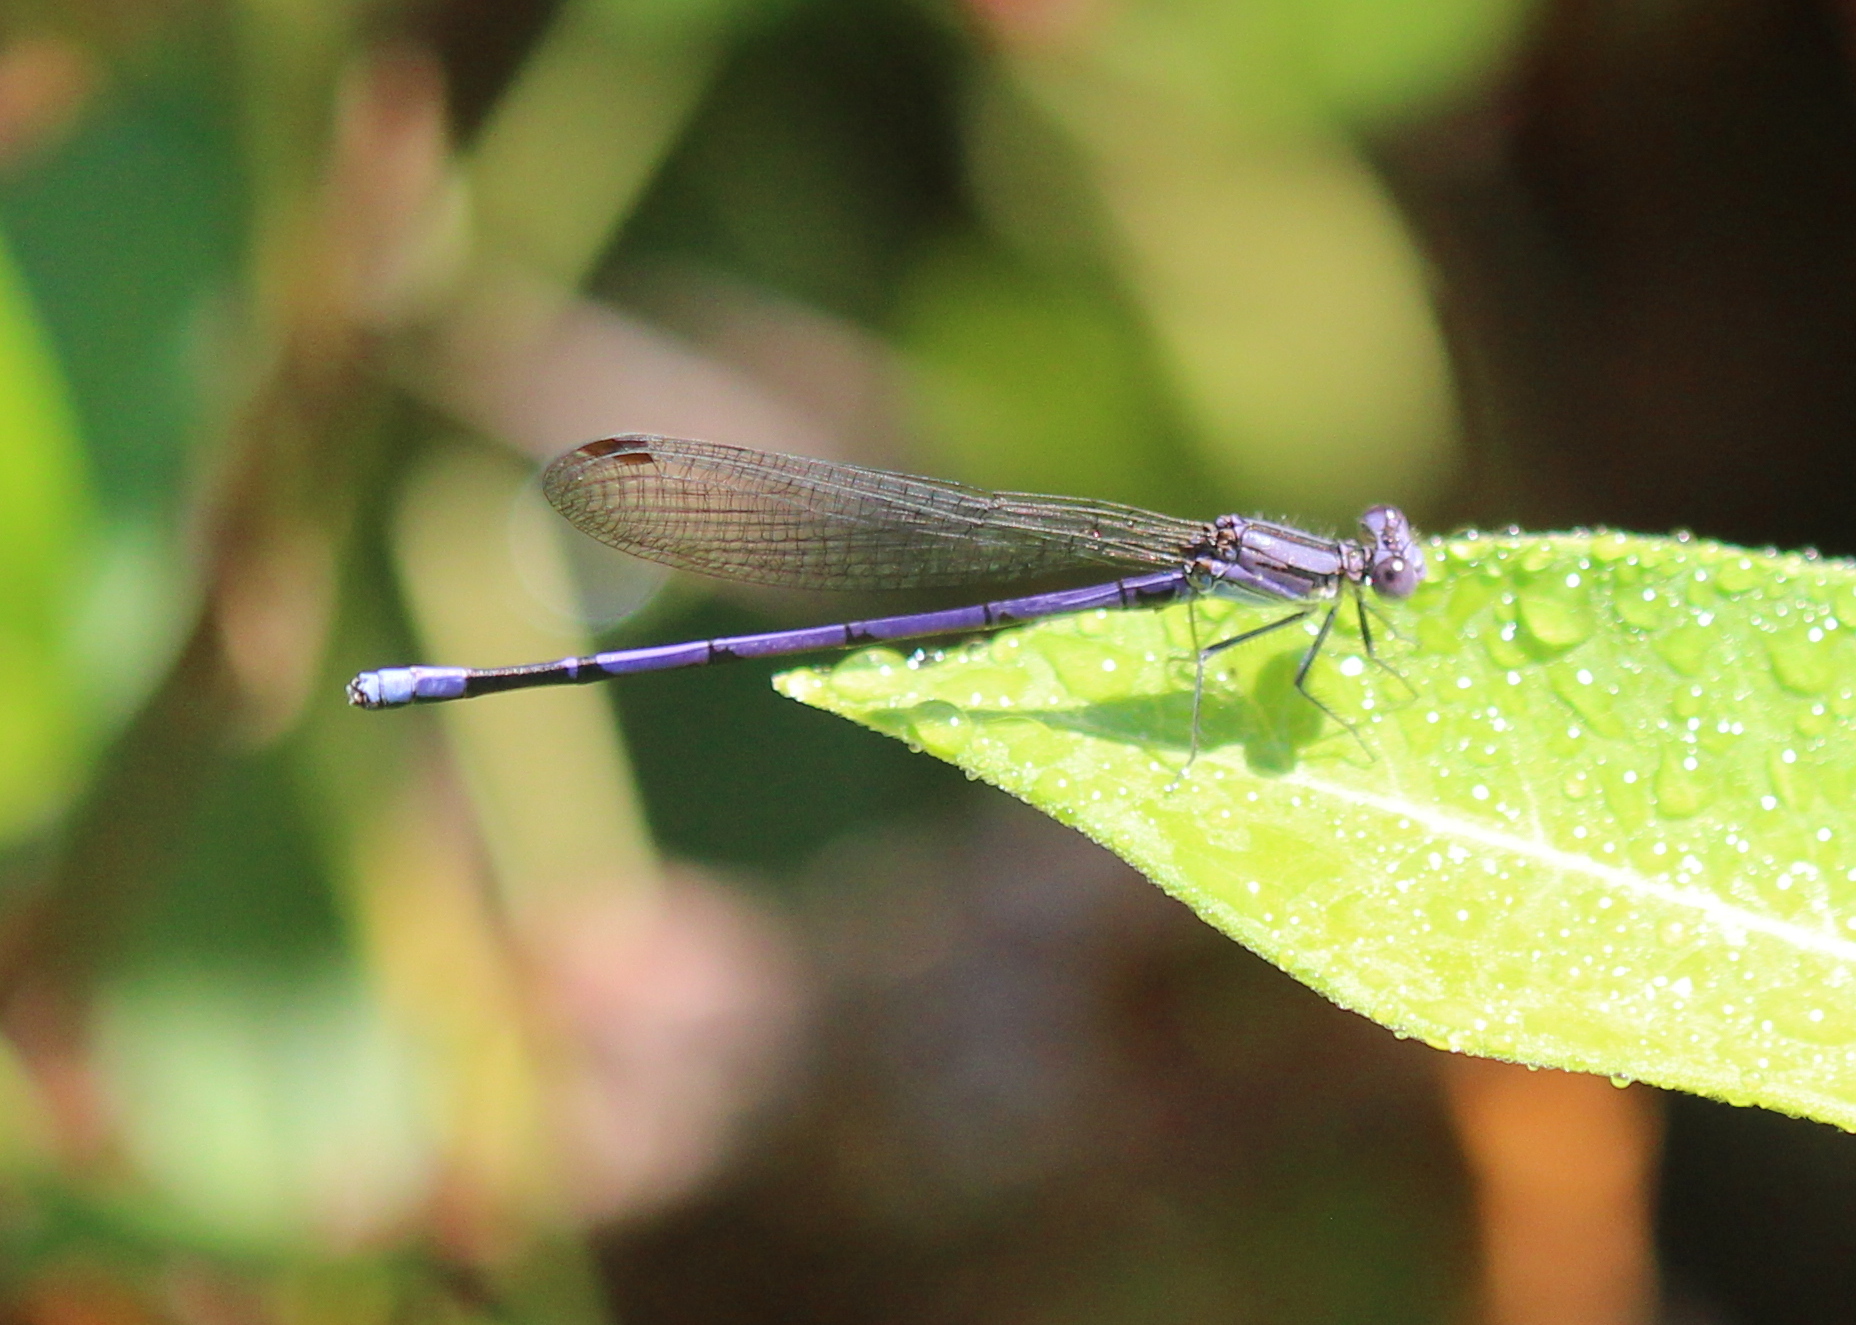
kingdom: Animalia
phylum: Arthropoda
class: Insecta
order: Odonata
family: Coenagrionidae
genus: Argia
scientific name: Argia fumipennis
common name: Variable dancer
